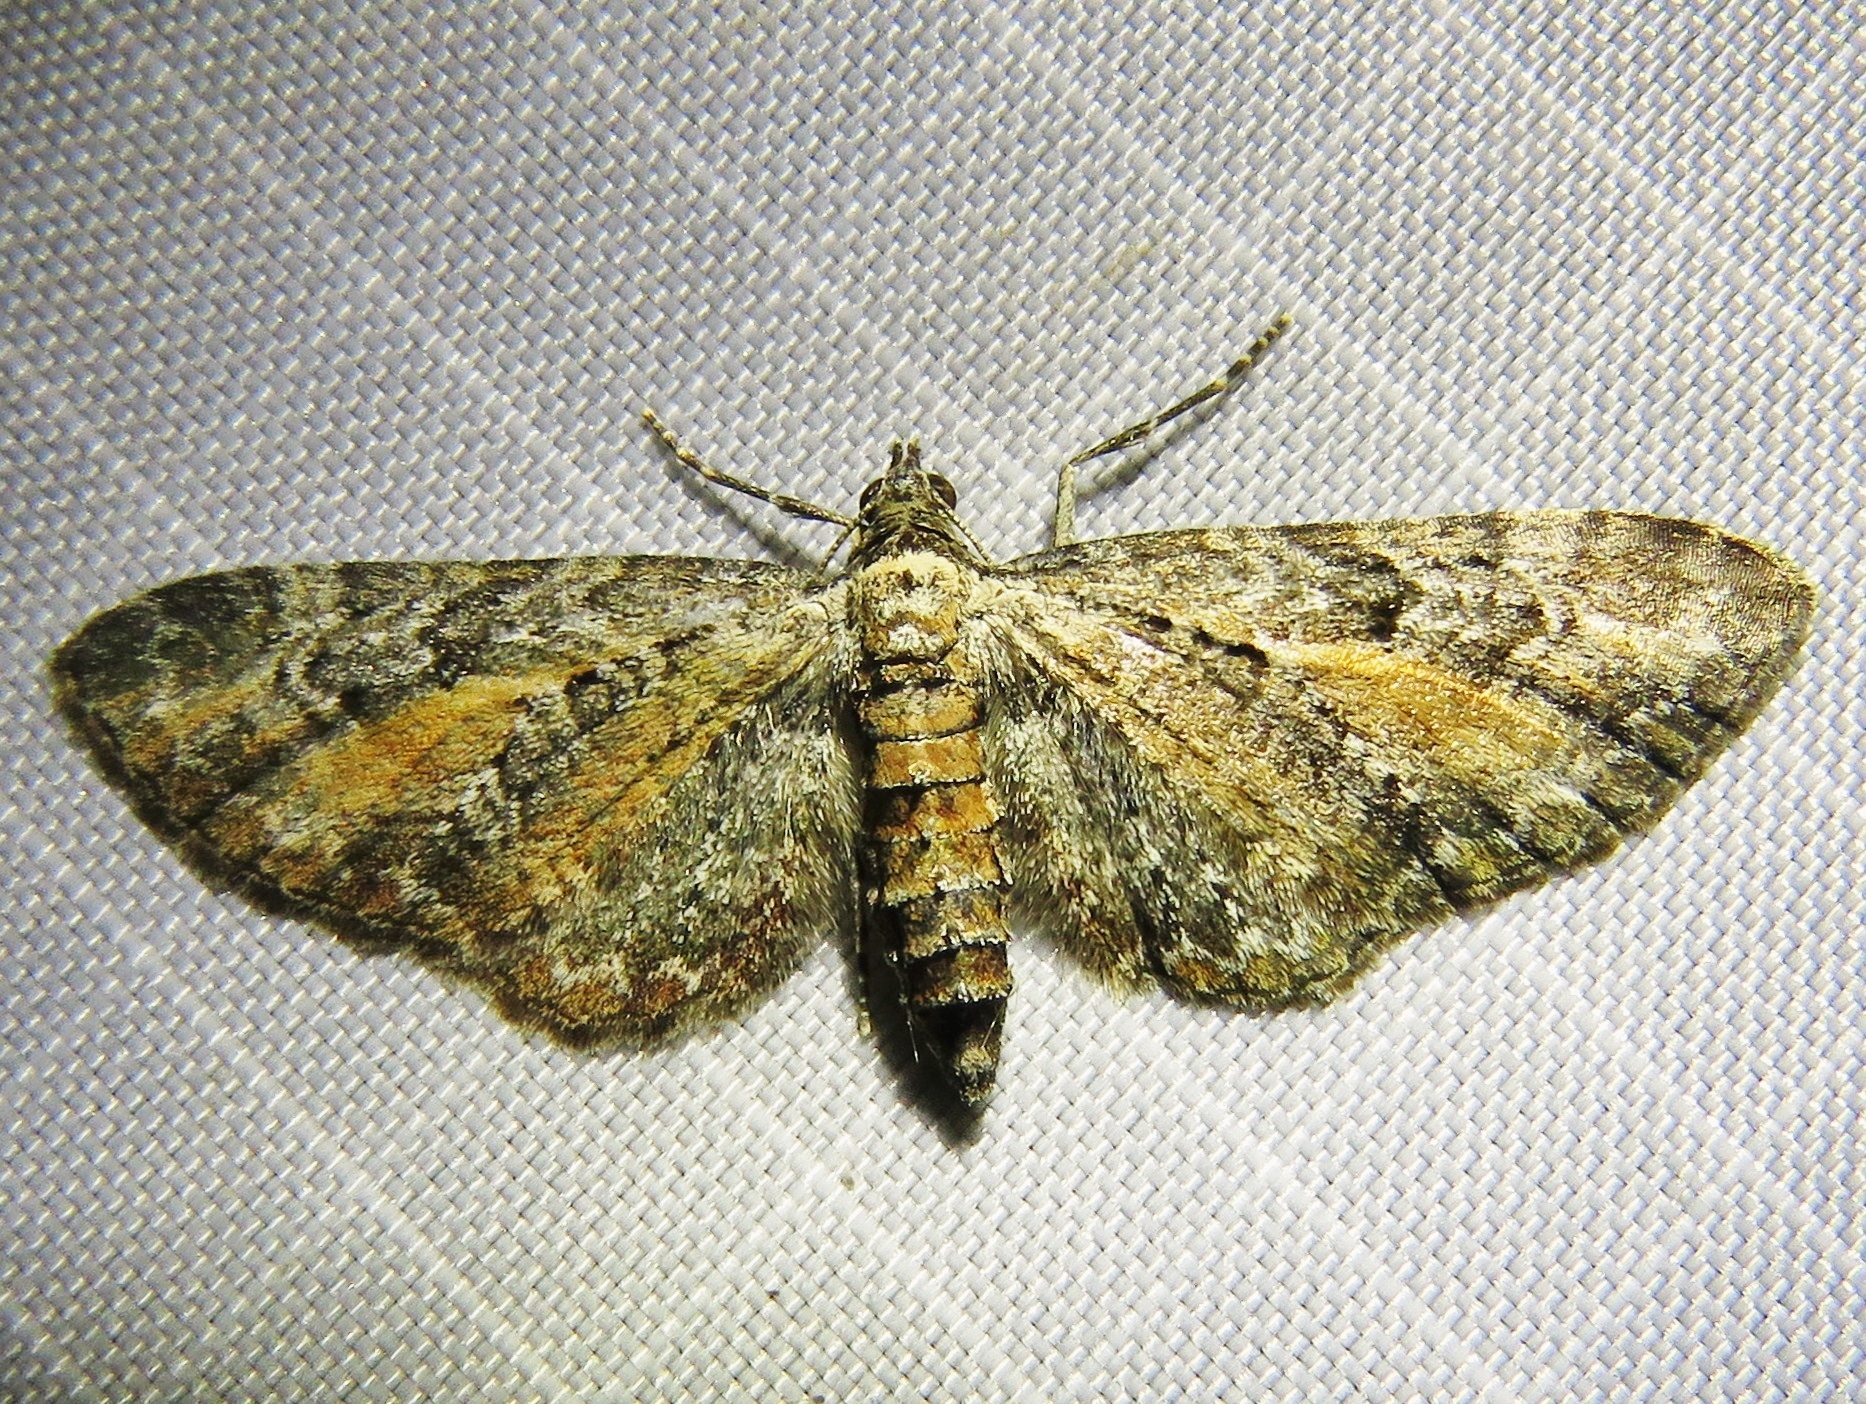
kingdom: Animalia
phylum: Arthropoda
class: Insecta
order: Lepidoptera
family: Geometridae
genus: Eupithecia
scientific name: Eupithecia icterata
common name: Tawny speckled pug
